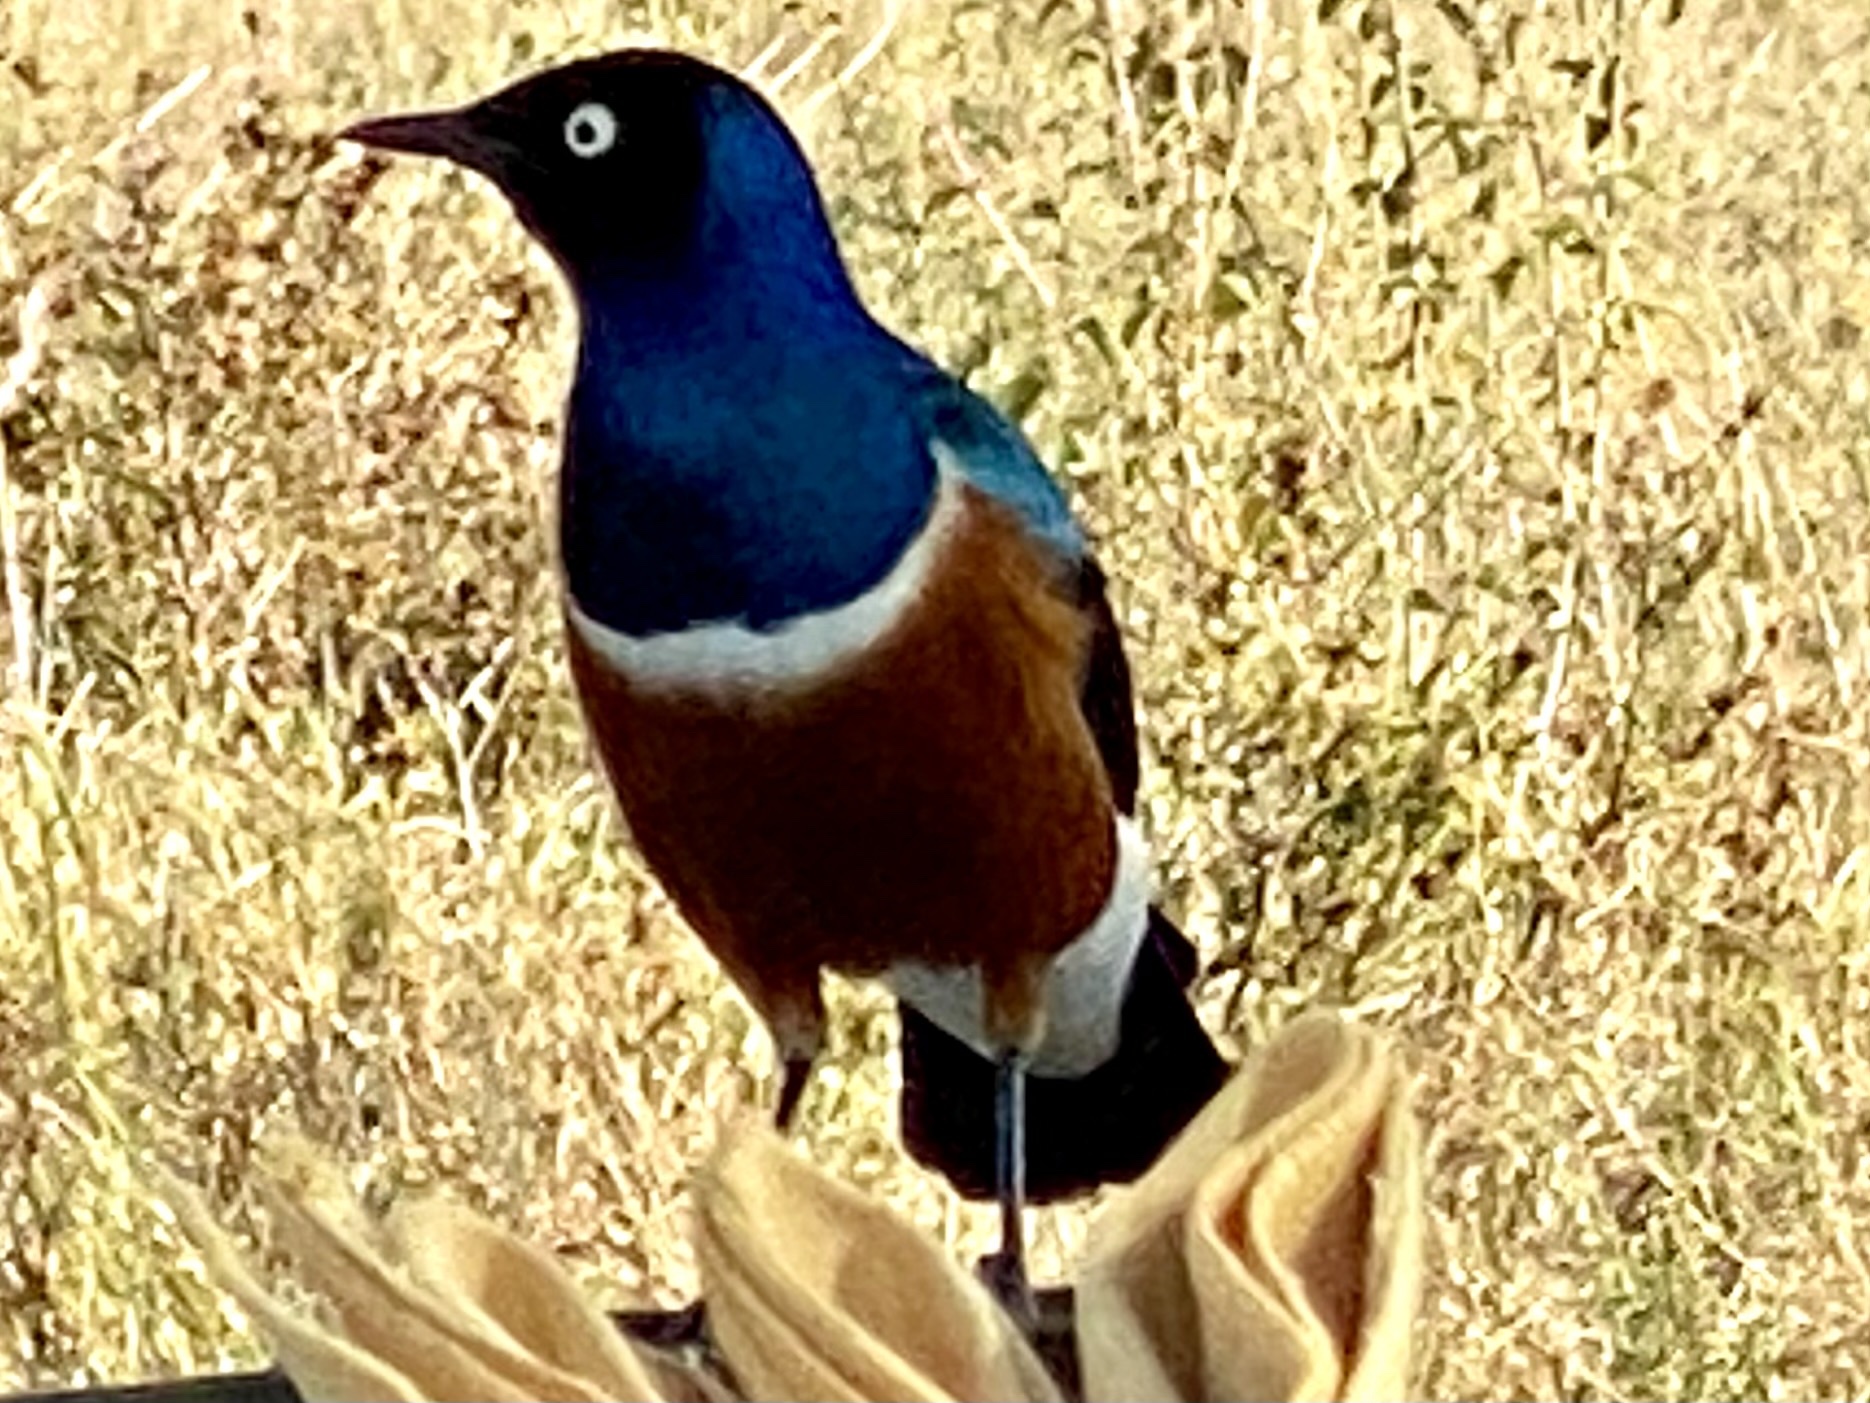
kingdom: Animalia
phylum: Chordata
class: Aves
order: Passeriformes
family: Sturnidae
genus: Lamprotornis
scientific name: Lamprotornis superbus
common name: Superb starling
